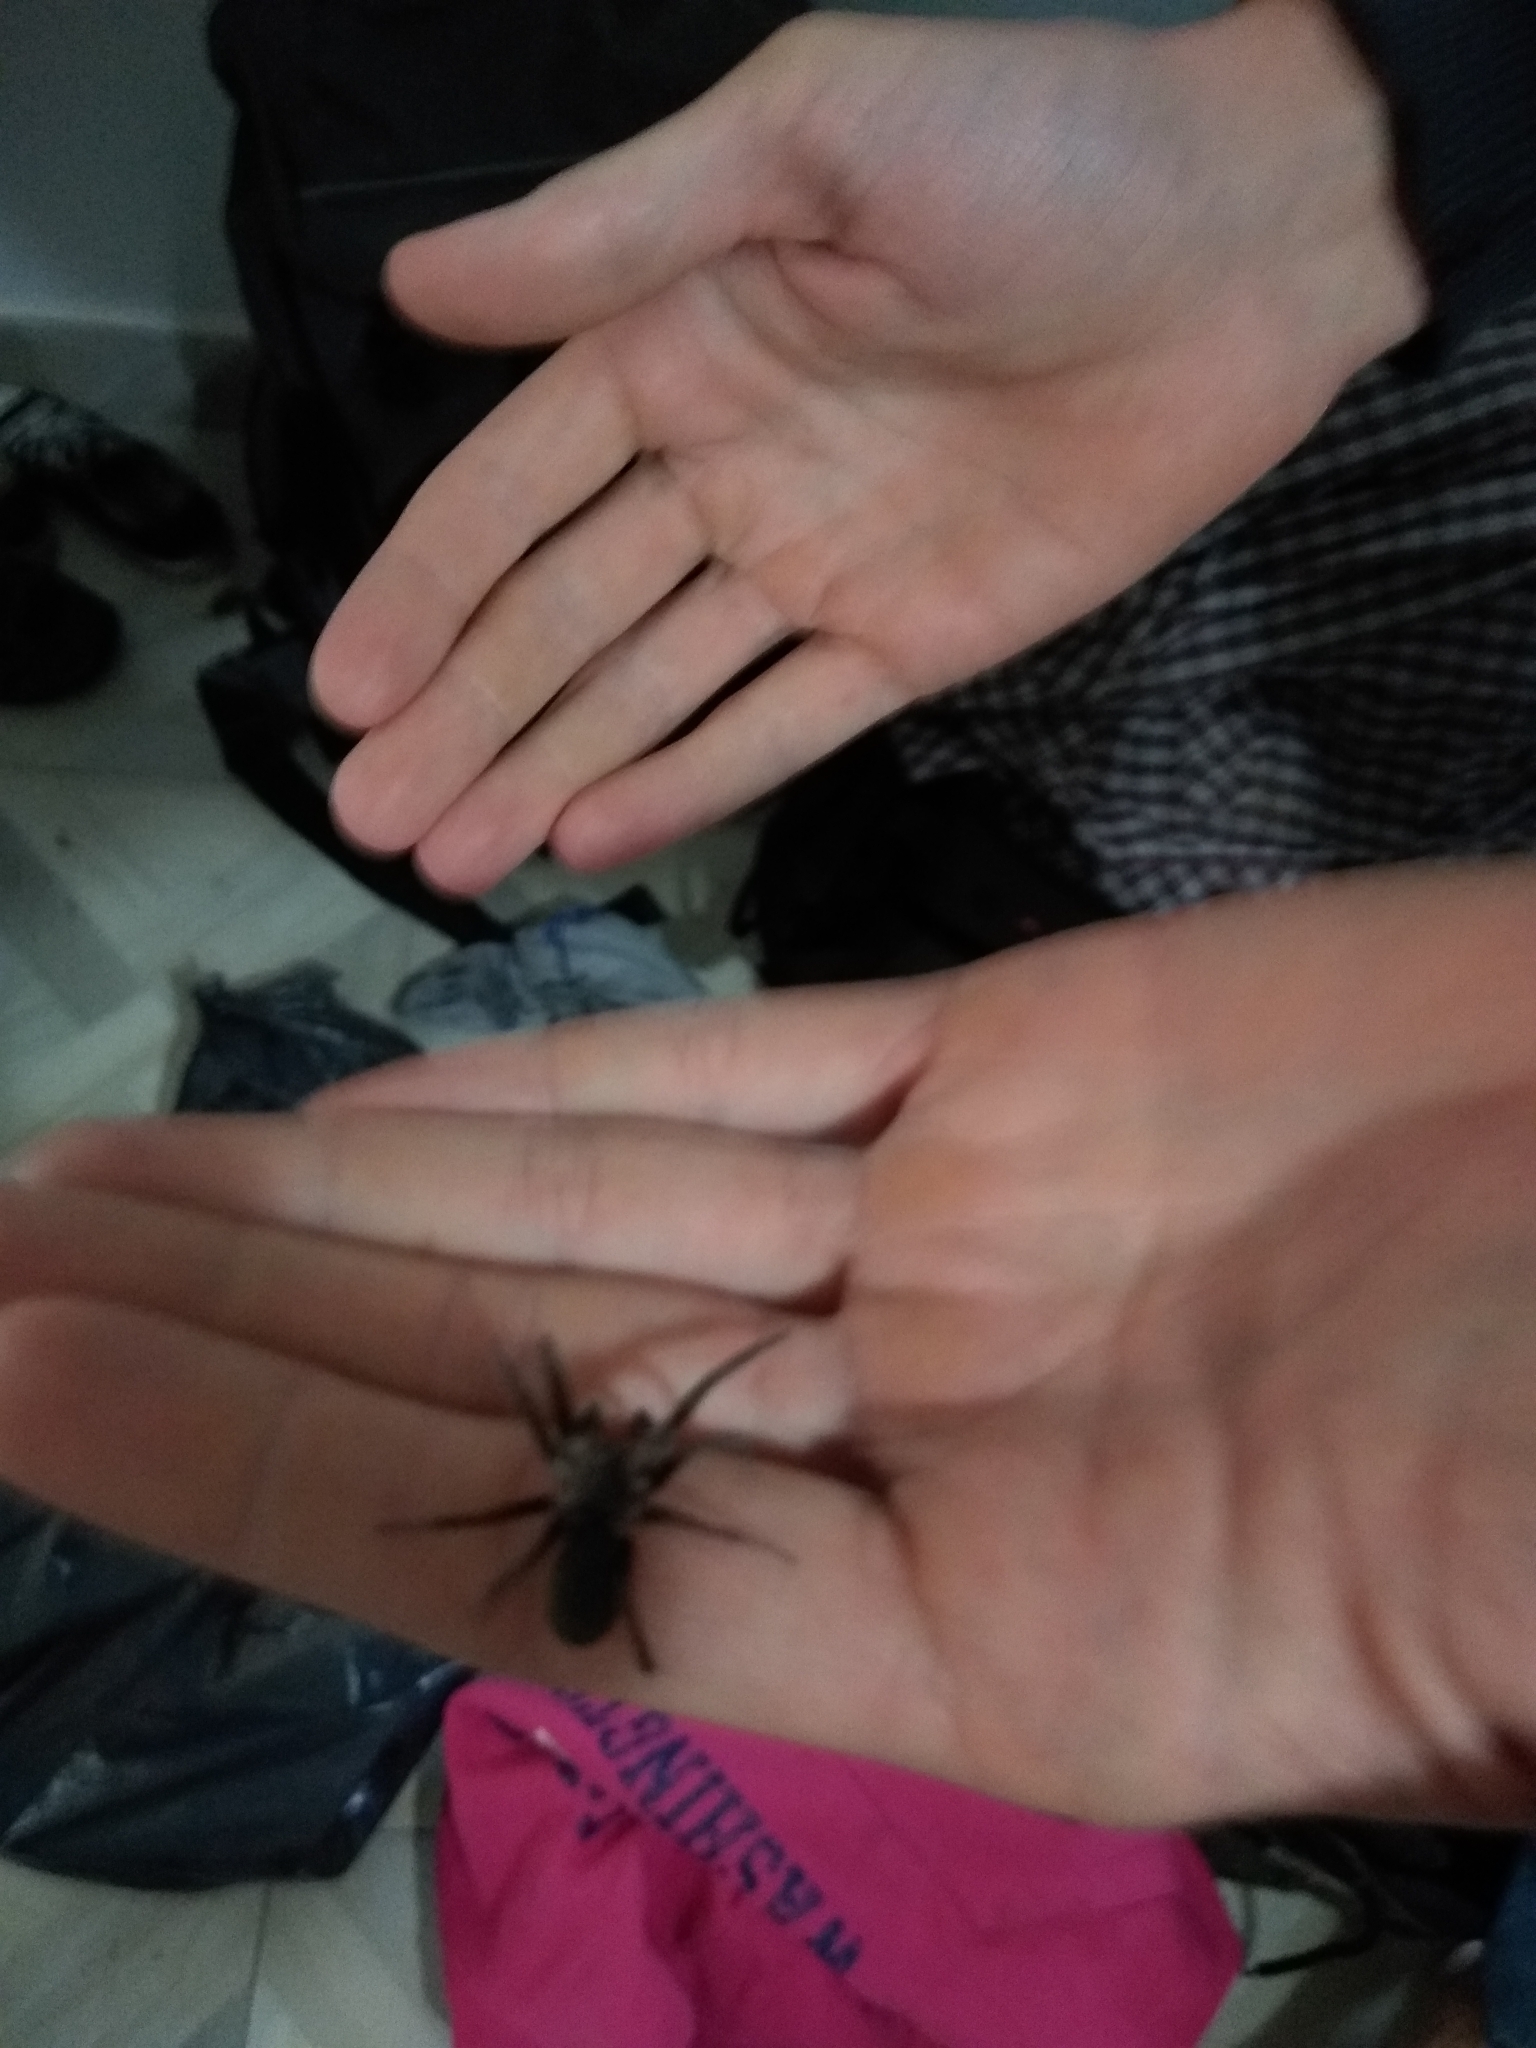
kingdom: Animalia
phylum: Arthropoda
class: Arachnida
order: Araneae
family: Filistatidae
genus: Kukulcania
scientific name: Kukulcania hibernalis
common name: Crevice weaver
